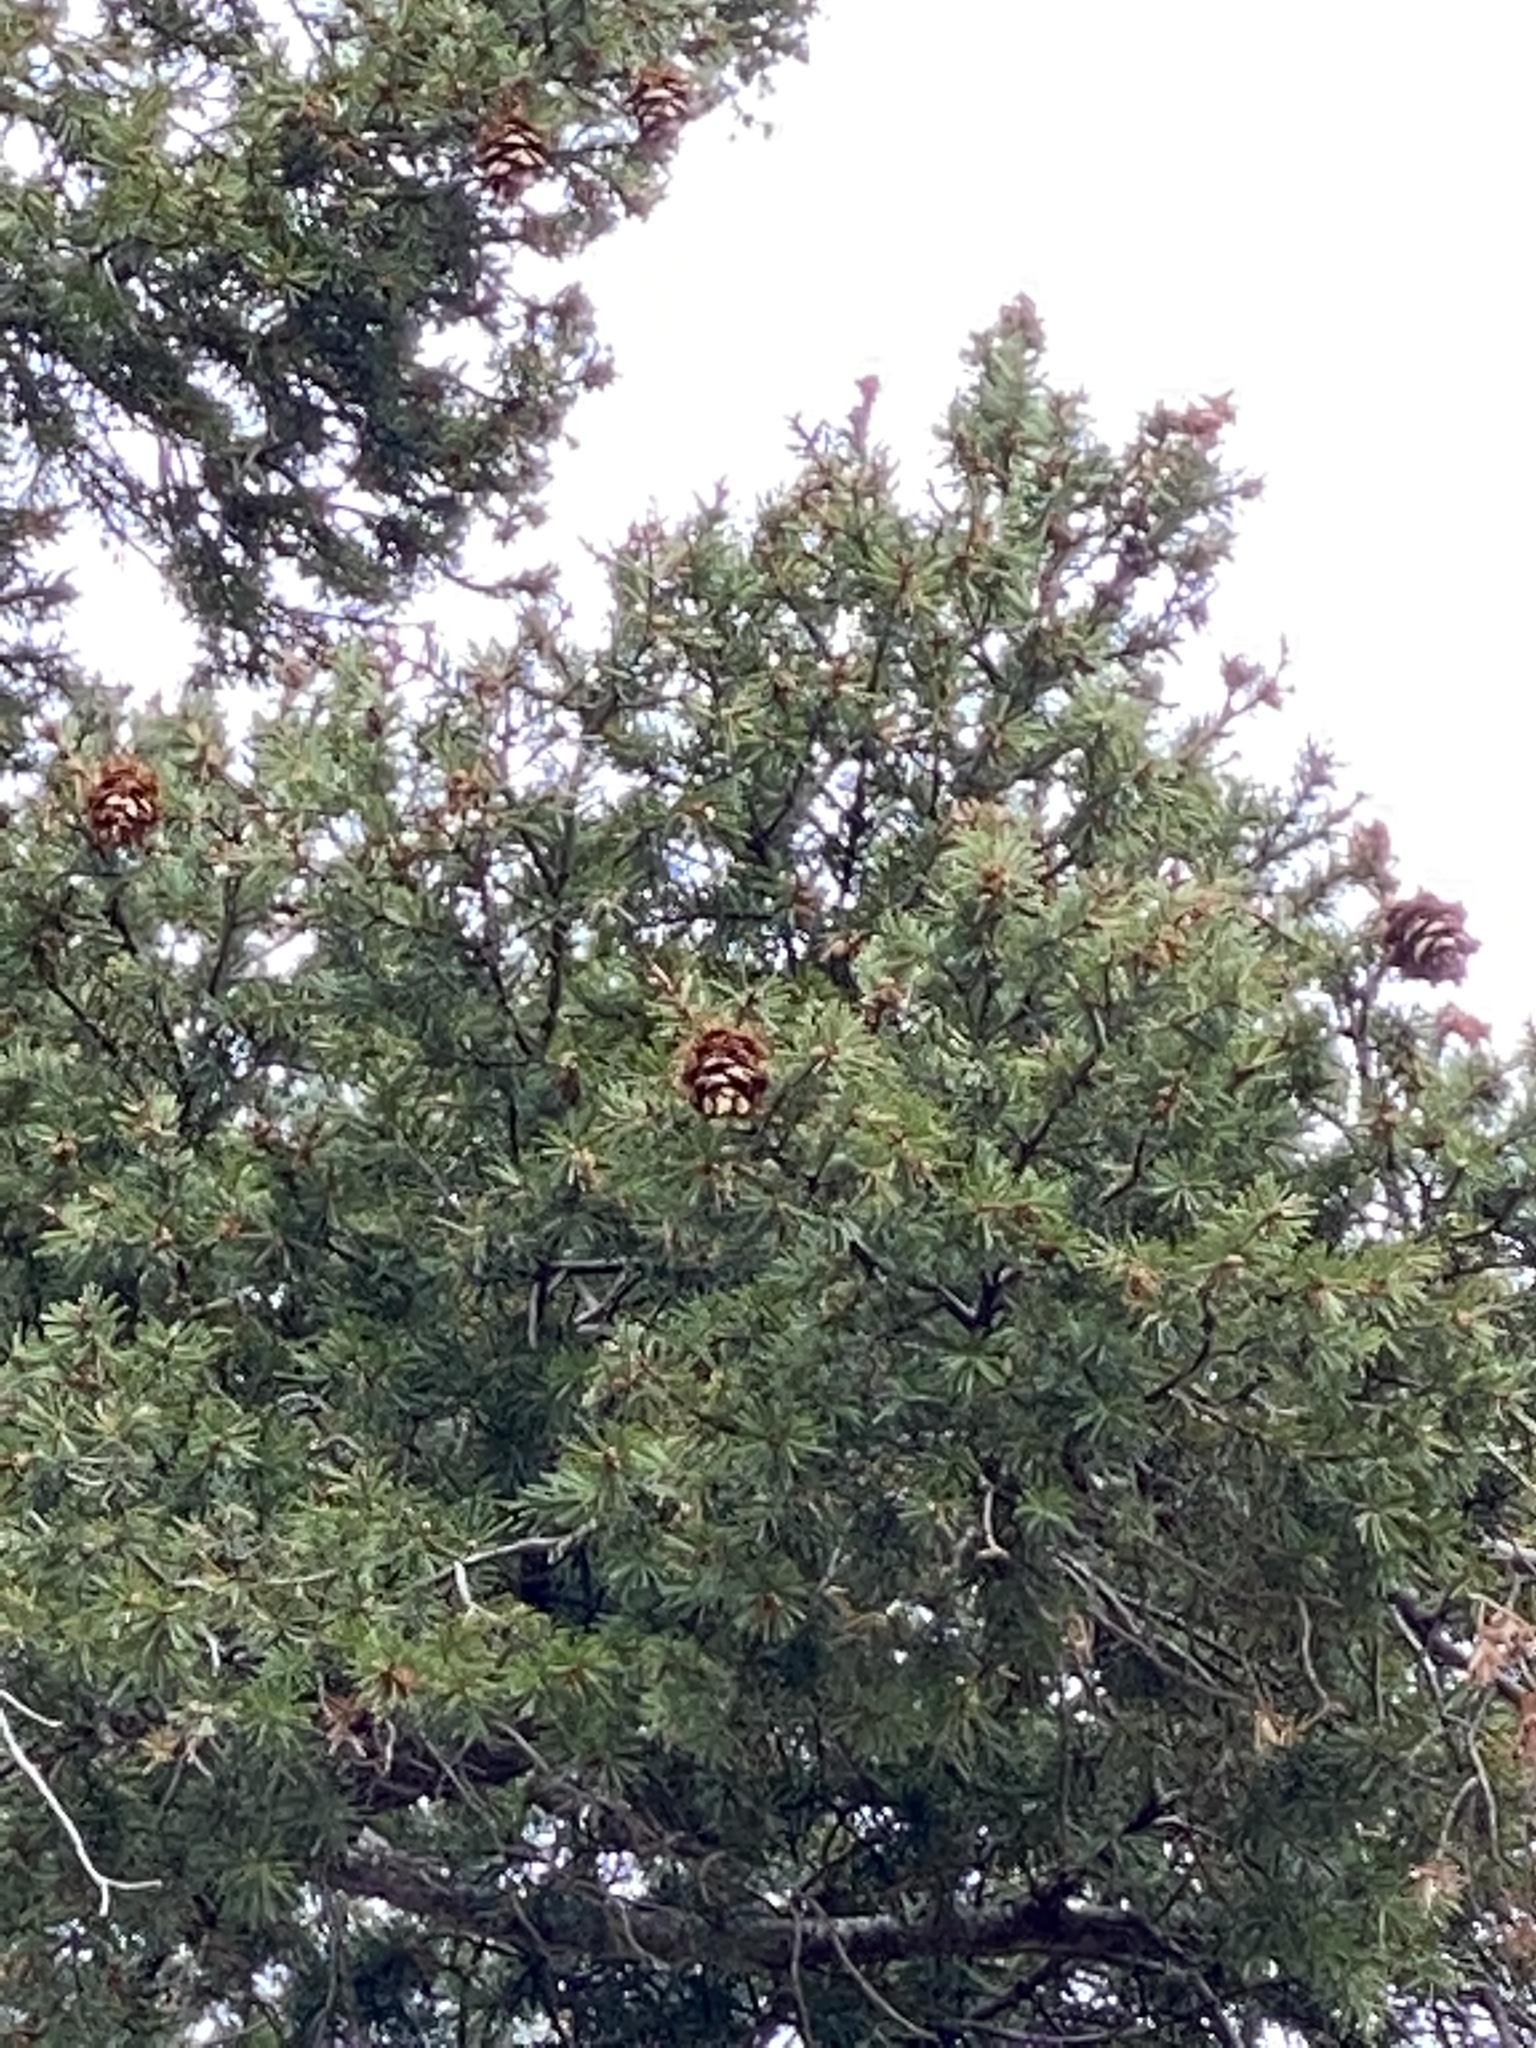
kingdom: Plantae
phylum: Tracheophyta
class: Pinopsida
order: Pinales
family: Pinaceae
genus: Pseudotsuga
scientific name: Pseudotsuga menziesii
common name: Douglas fir
